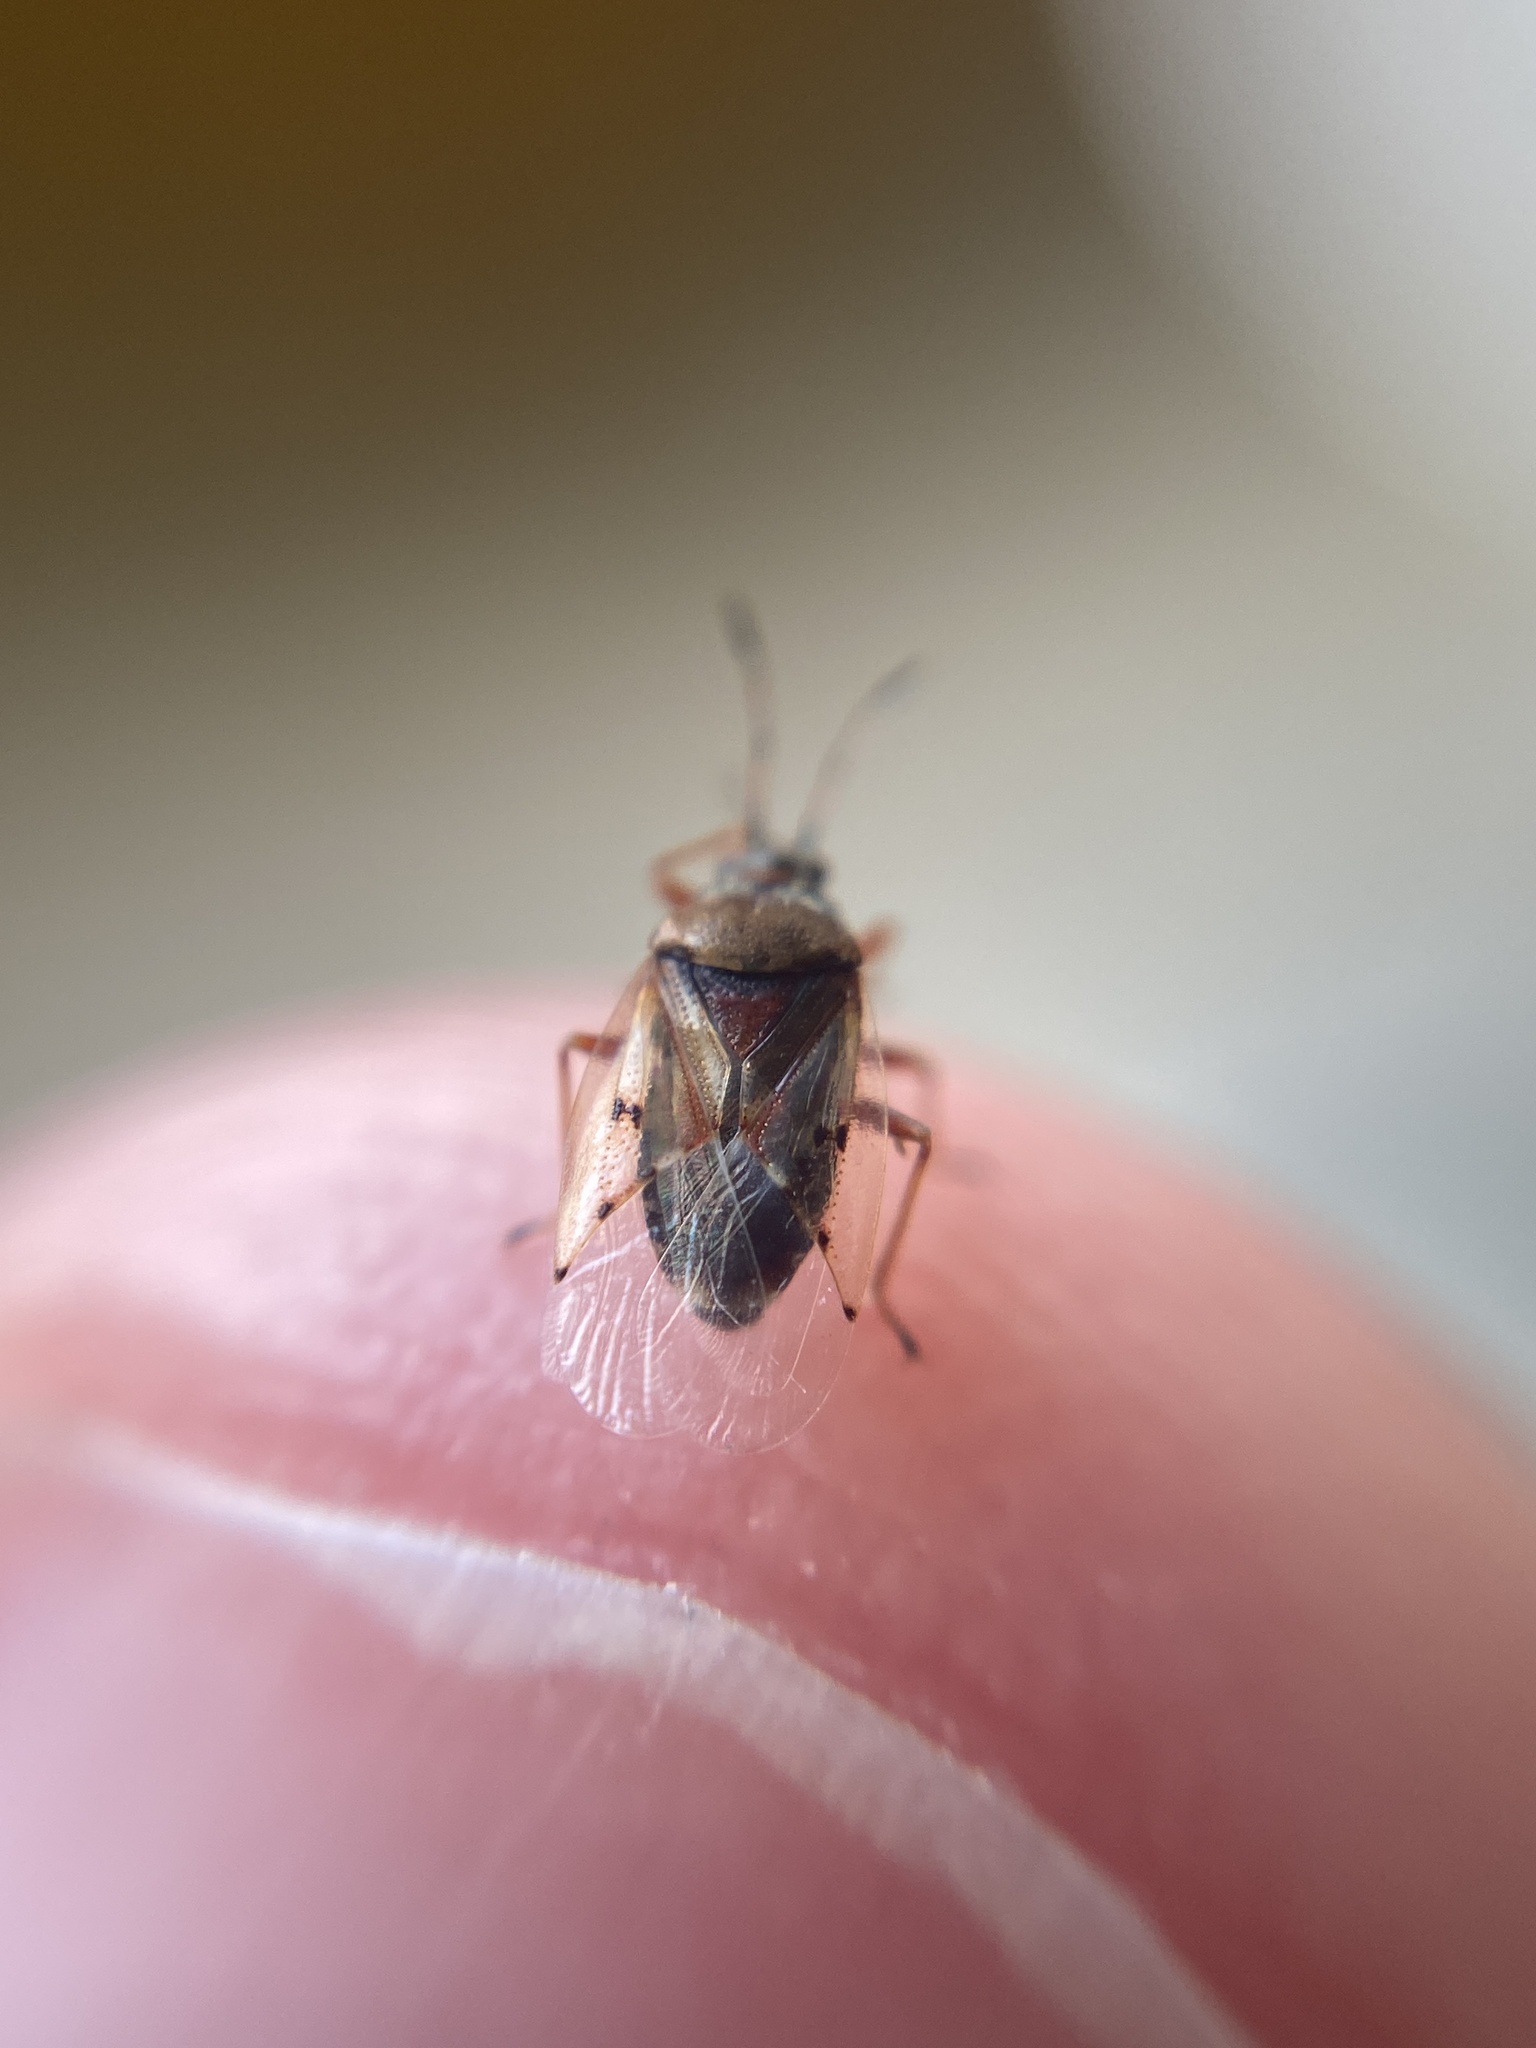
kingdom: Animalia
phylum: Arthropoda
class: Insecta
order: Hemiptera
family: Lygaeidae
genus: Kleidocerys
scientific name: Kleidocerys resedae
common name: Birch catkin bug
